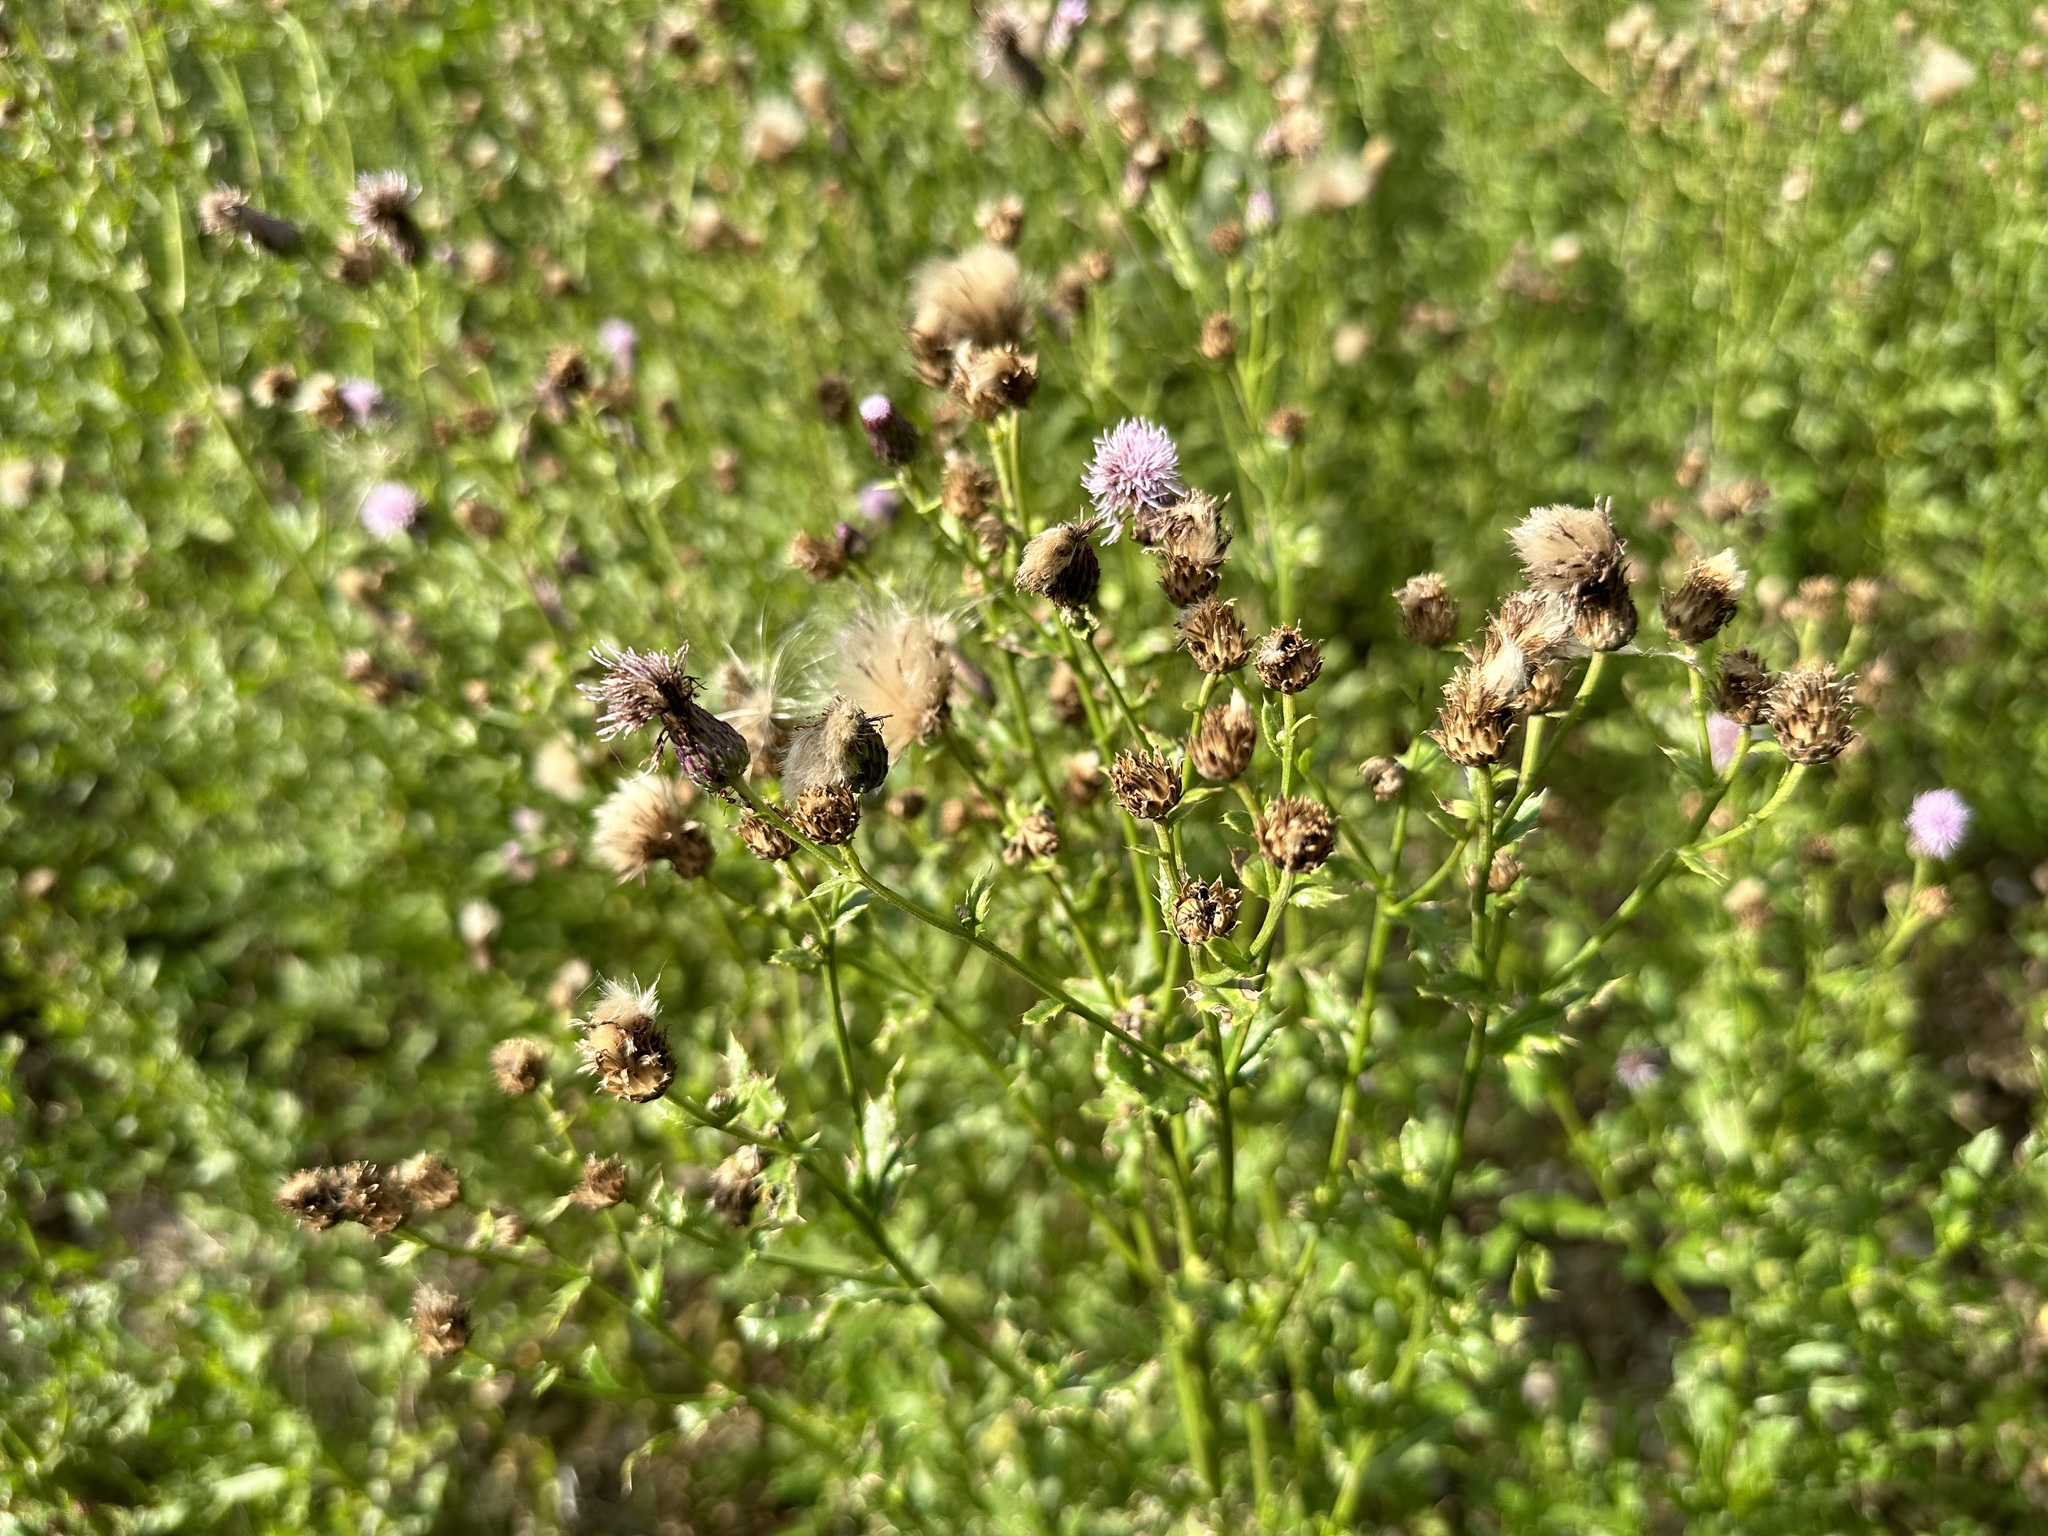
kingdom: Plantae
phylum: Tracheophyta
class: Magnoliopsida
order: Asterales
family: Asteraceae
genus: Cirsium
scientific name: Cirsium arvense
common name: Creeping thistle
